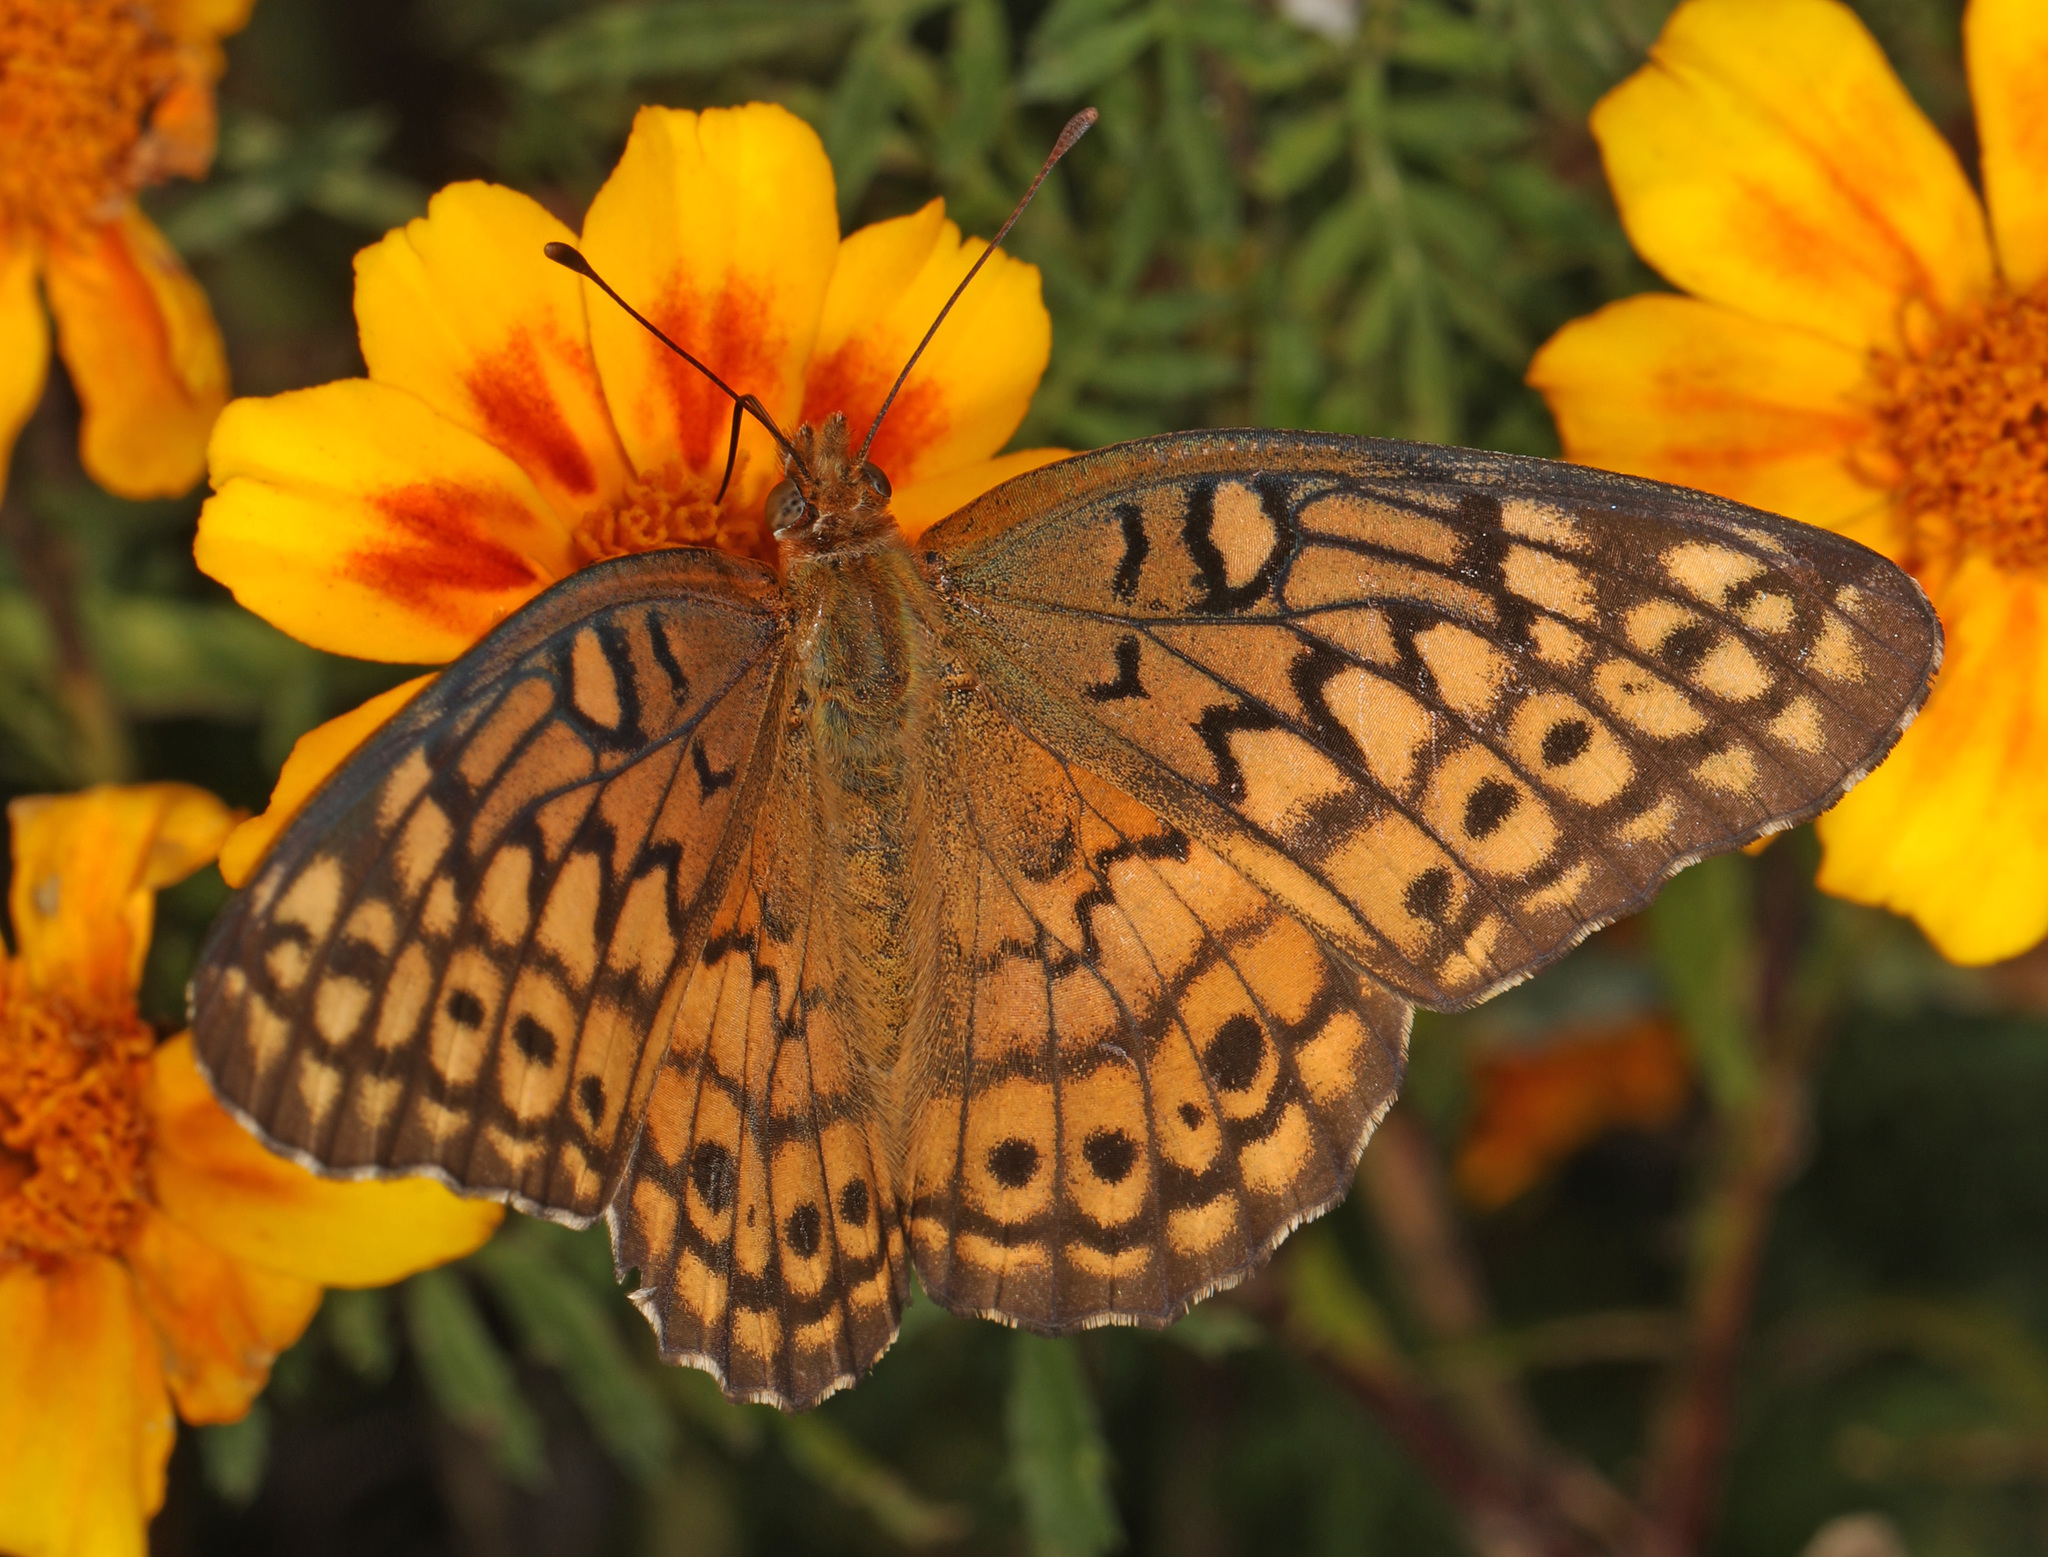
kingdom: Animalia
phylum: Arthropoda
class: Insecta
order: Lepidoptera
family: Nymphalidae
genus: Euptoieta
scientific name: Euptoieta claudia
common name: Variegated fritillary
